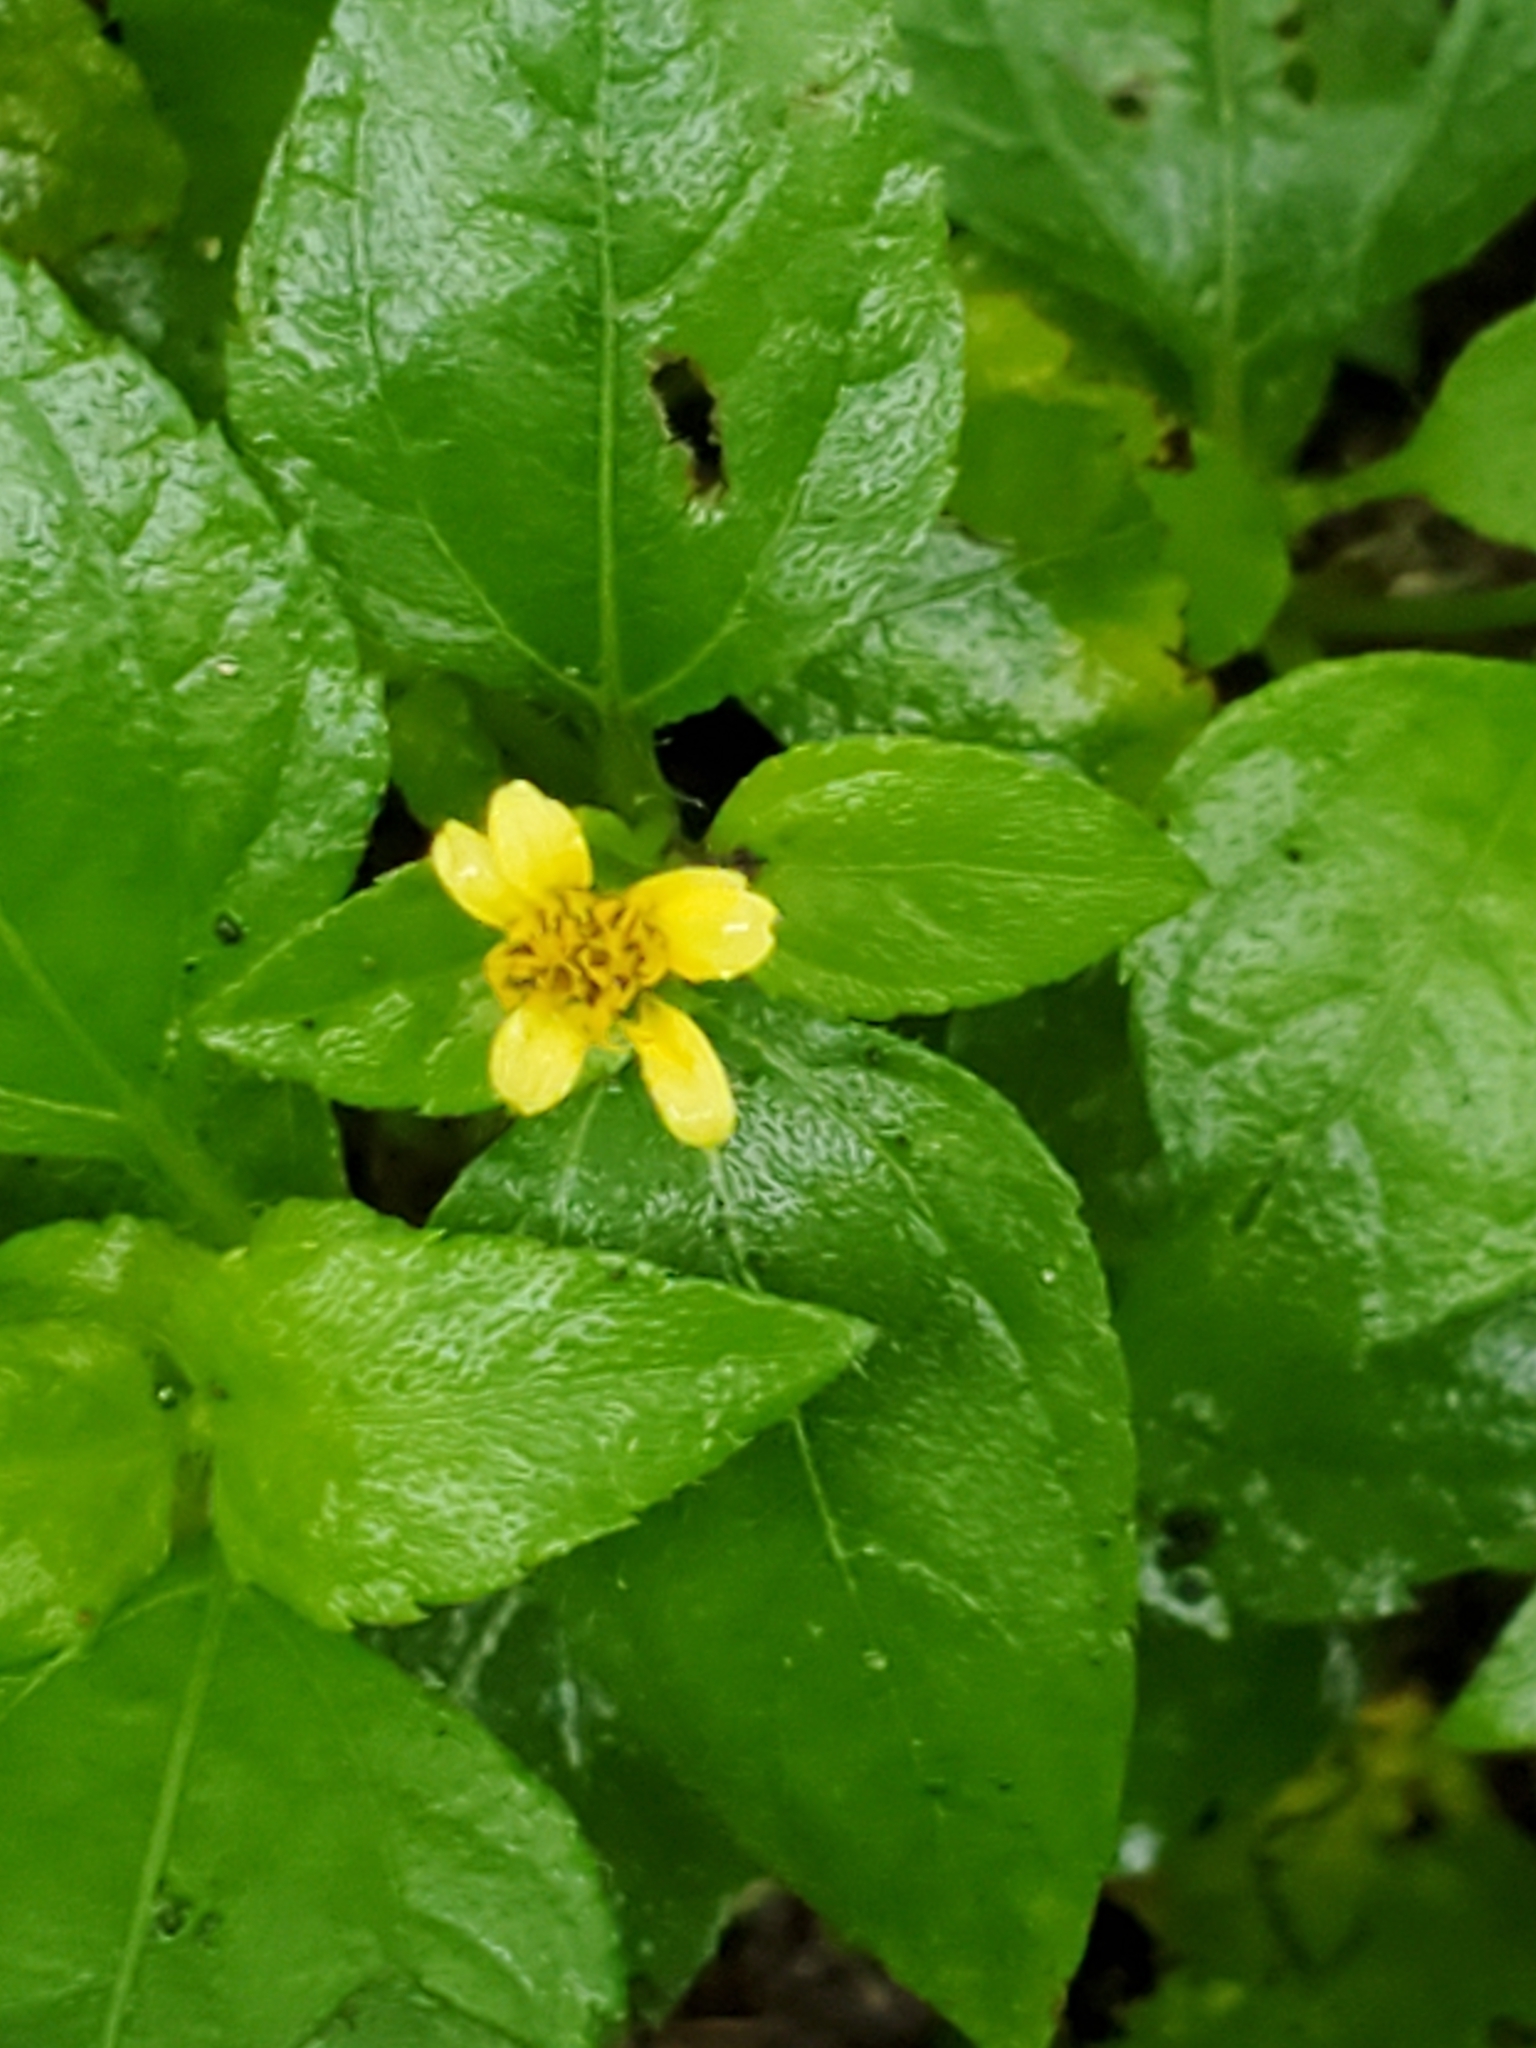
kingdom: Plantae
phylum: Tracheophyta
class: Magnoliopsida
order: Asterales
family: Asteraceae
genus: Calyptocarpus
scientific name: Calyptocarpus vialis
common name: Straggler daisy
